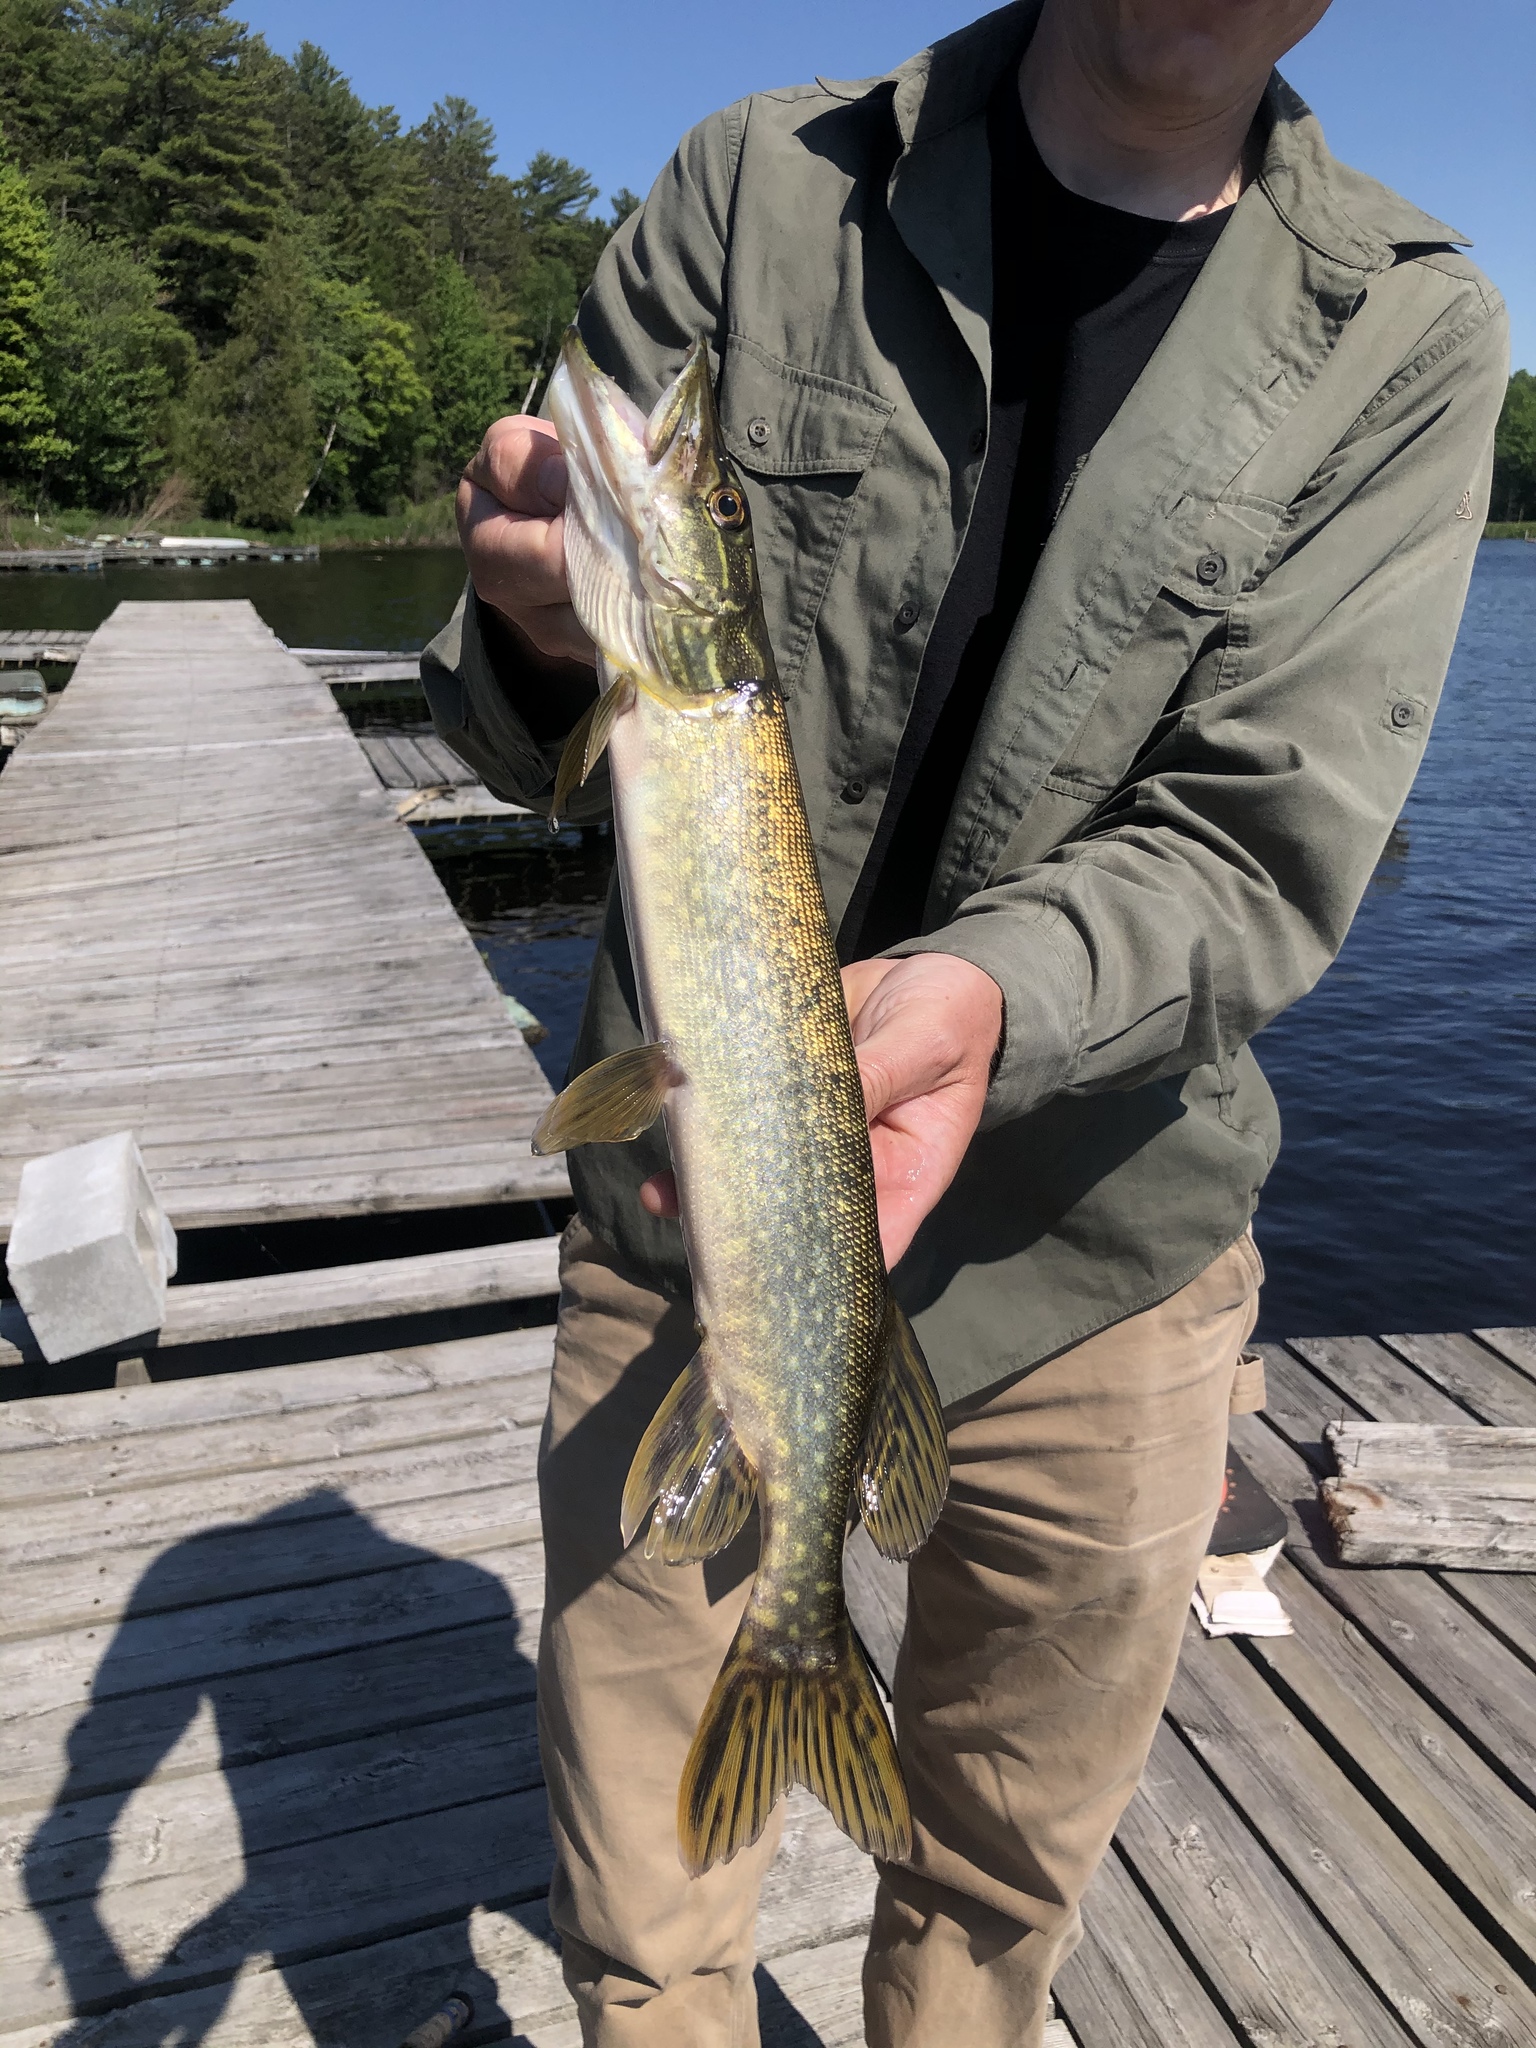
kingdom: Animalia
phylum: Chordata
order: Esociformes
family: Esocidae
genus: Esox
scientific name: Esox lucius
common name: Northern pike
